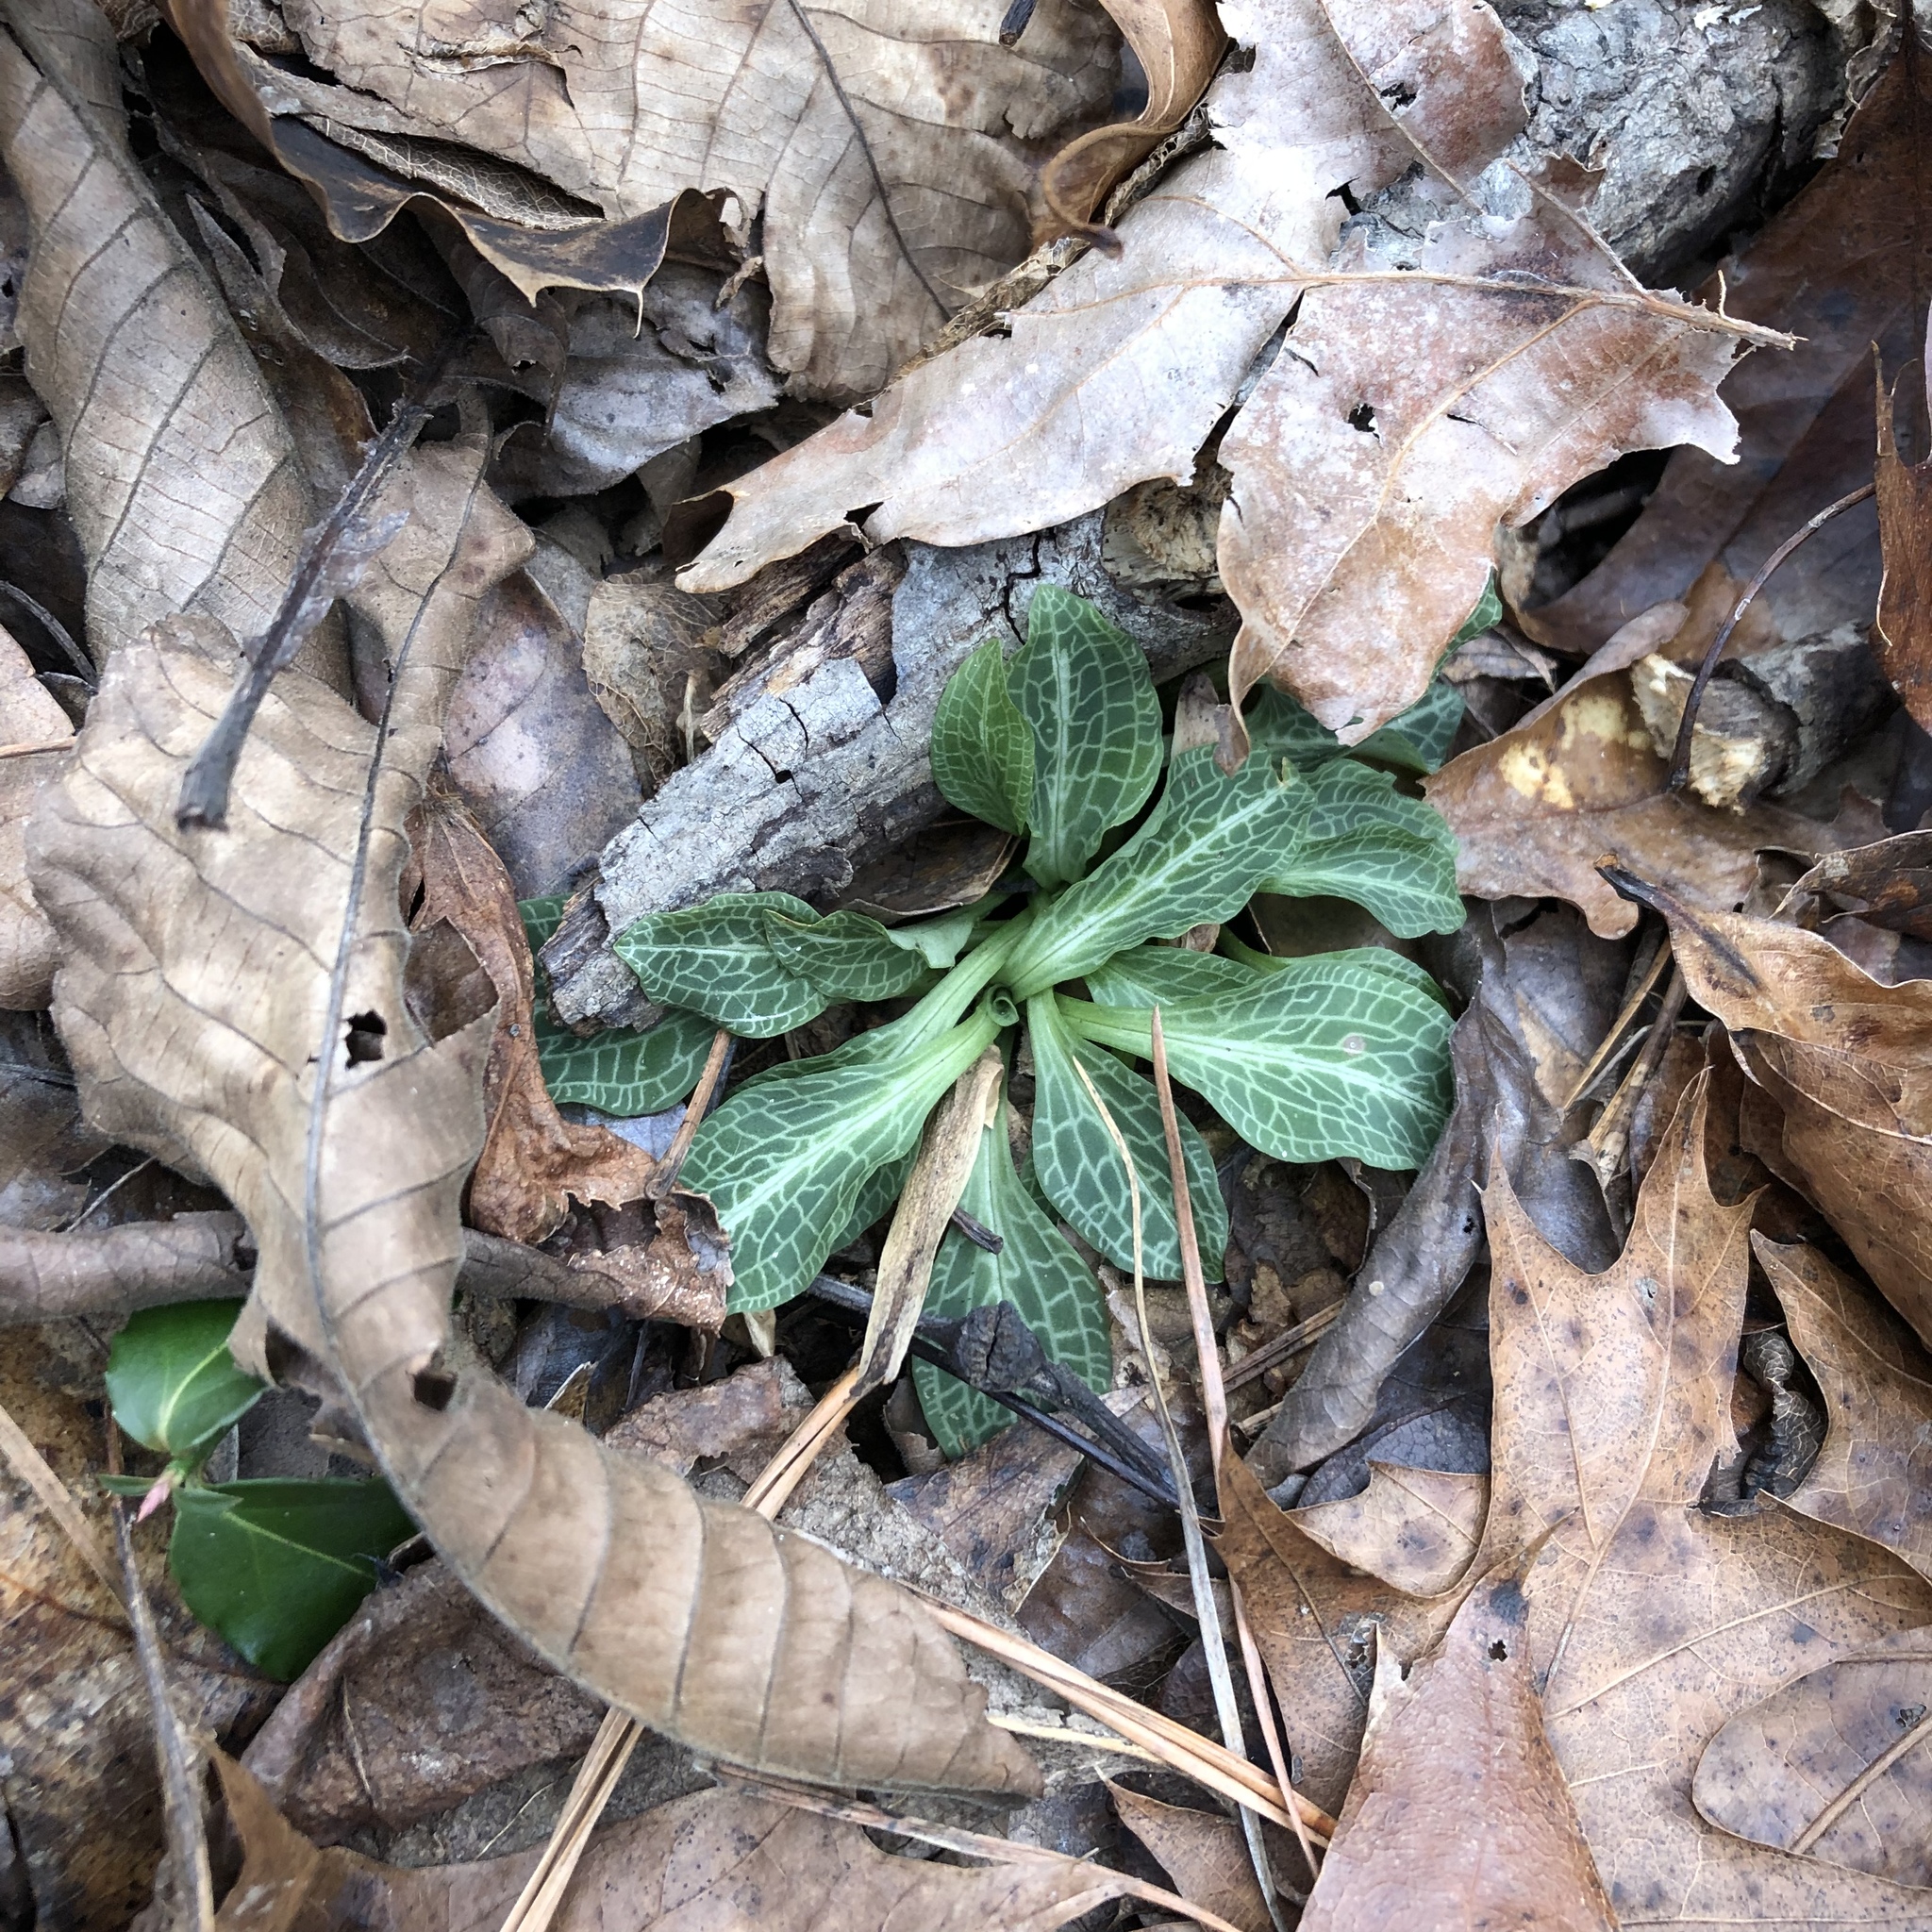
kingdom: Plantae
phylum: Tracheophyta
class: Liliopsida
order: Asparagales
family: Orchidaceae
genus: Goodyera
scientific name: Goodyera pubescens
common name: Downy rattlesnake-plantain
